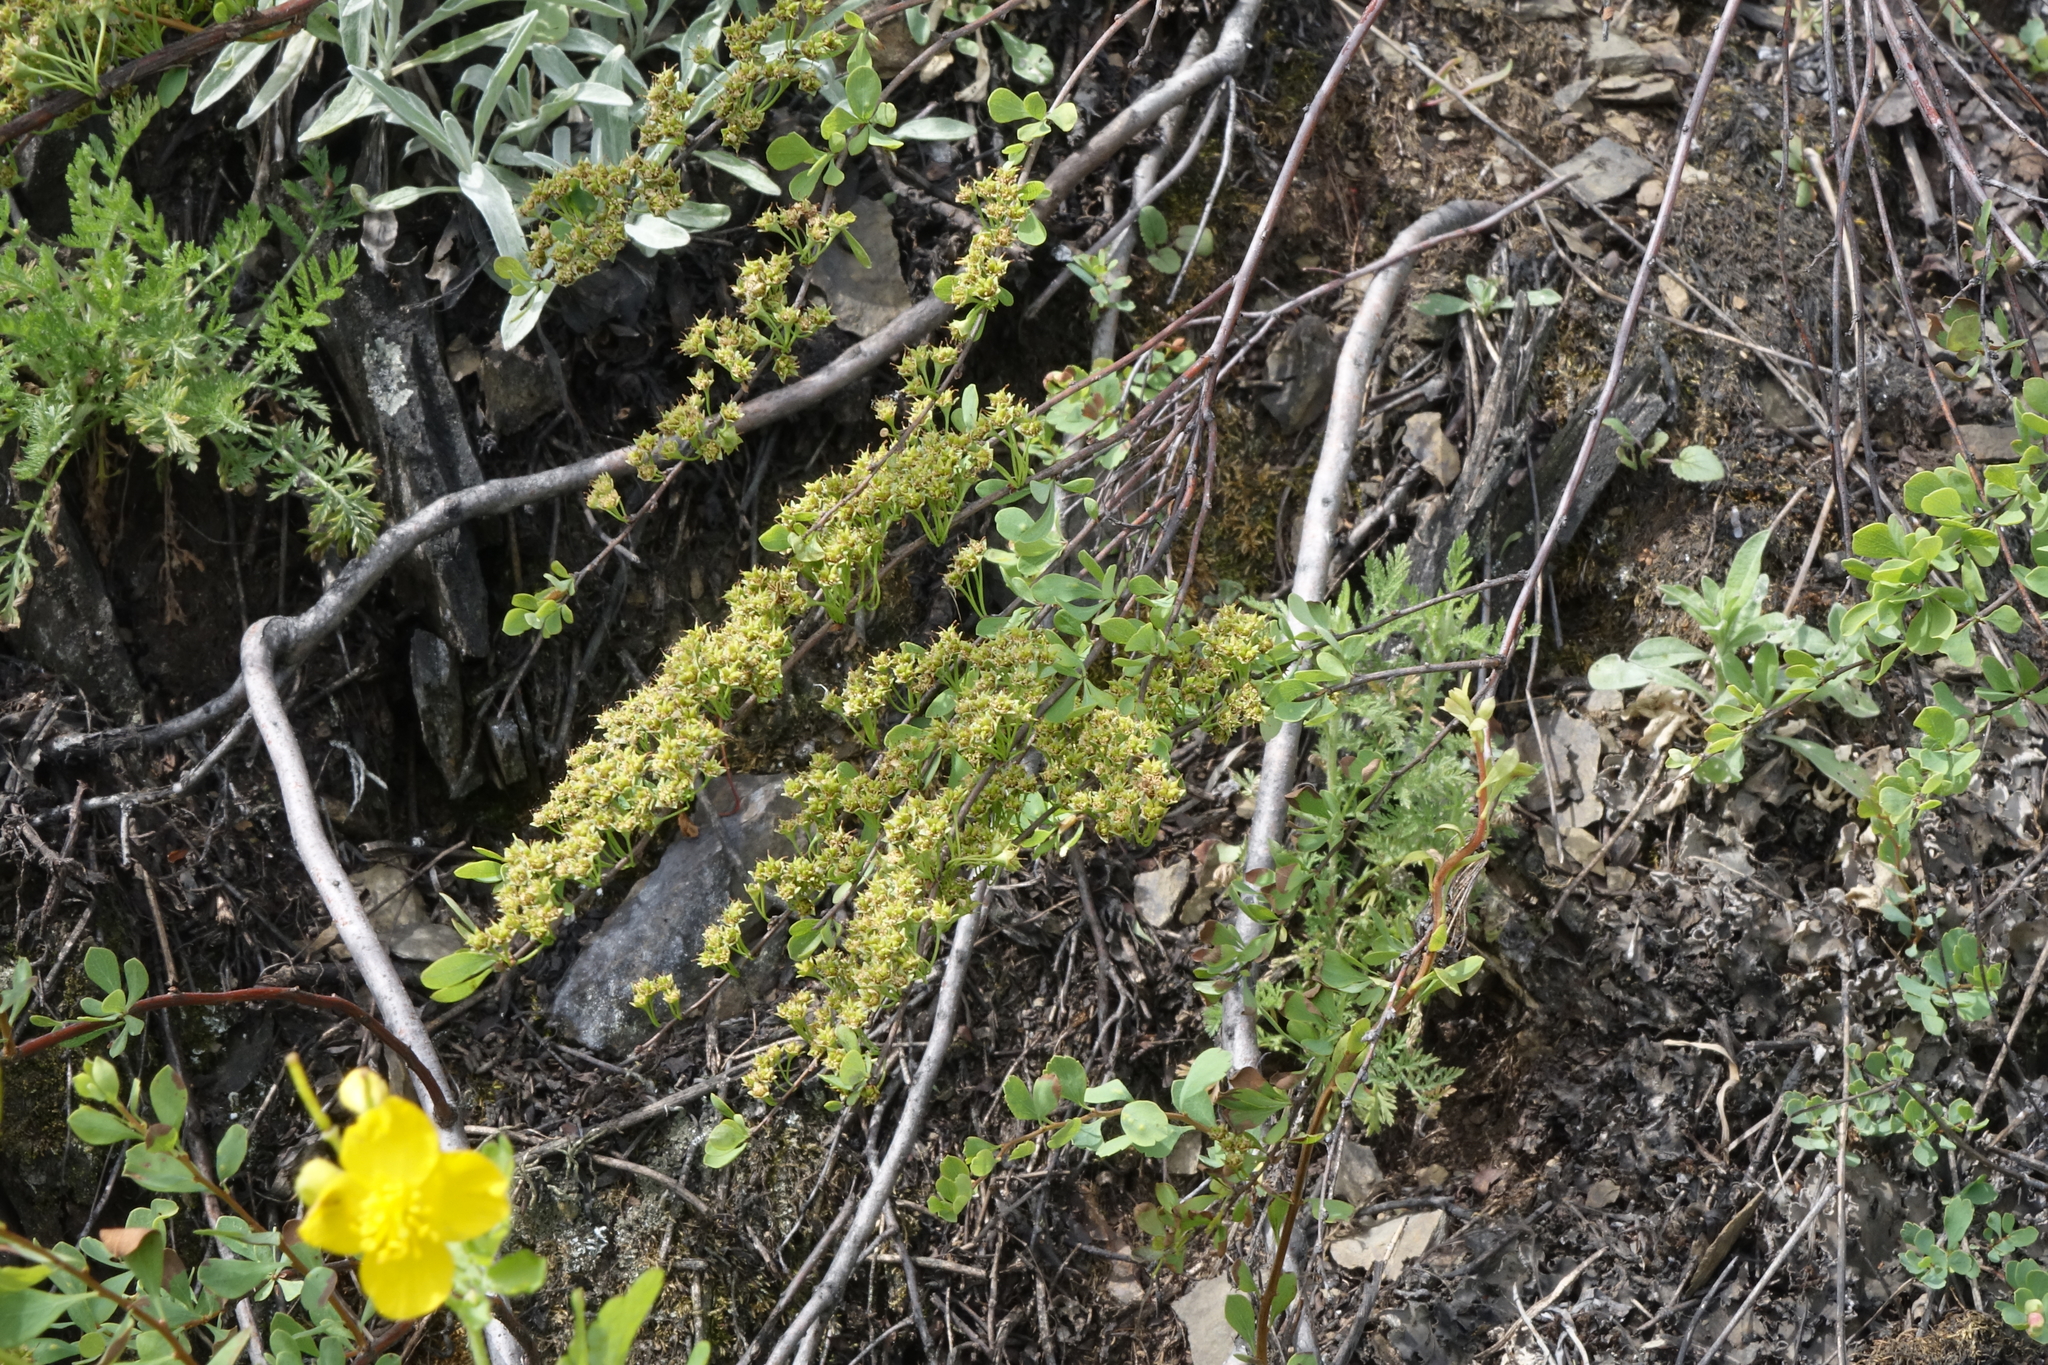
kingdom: Plantae
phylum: Tracheophyta
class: Magnoliopsida
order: Rosales
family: Rosaceae
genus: Spiraea
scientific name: Spiraea hypericifolia
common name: Iberian spirea
